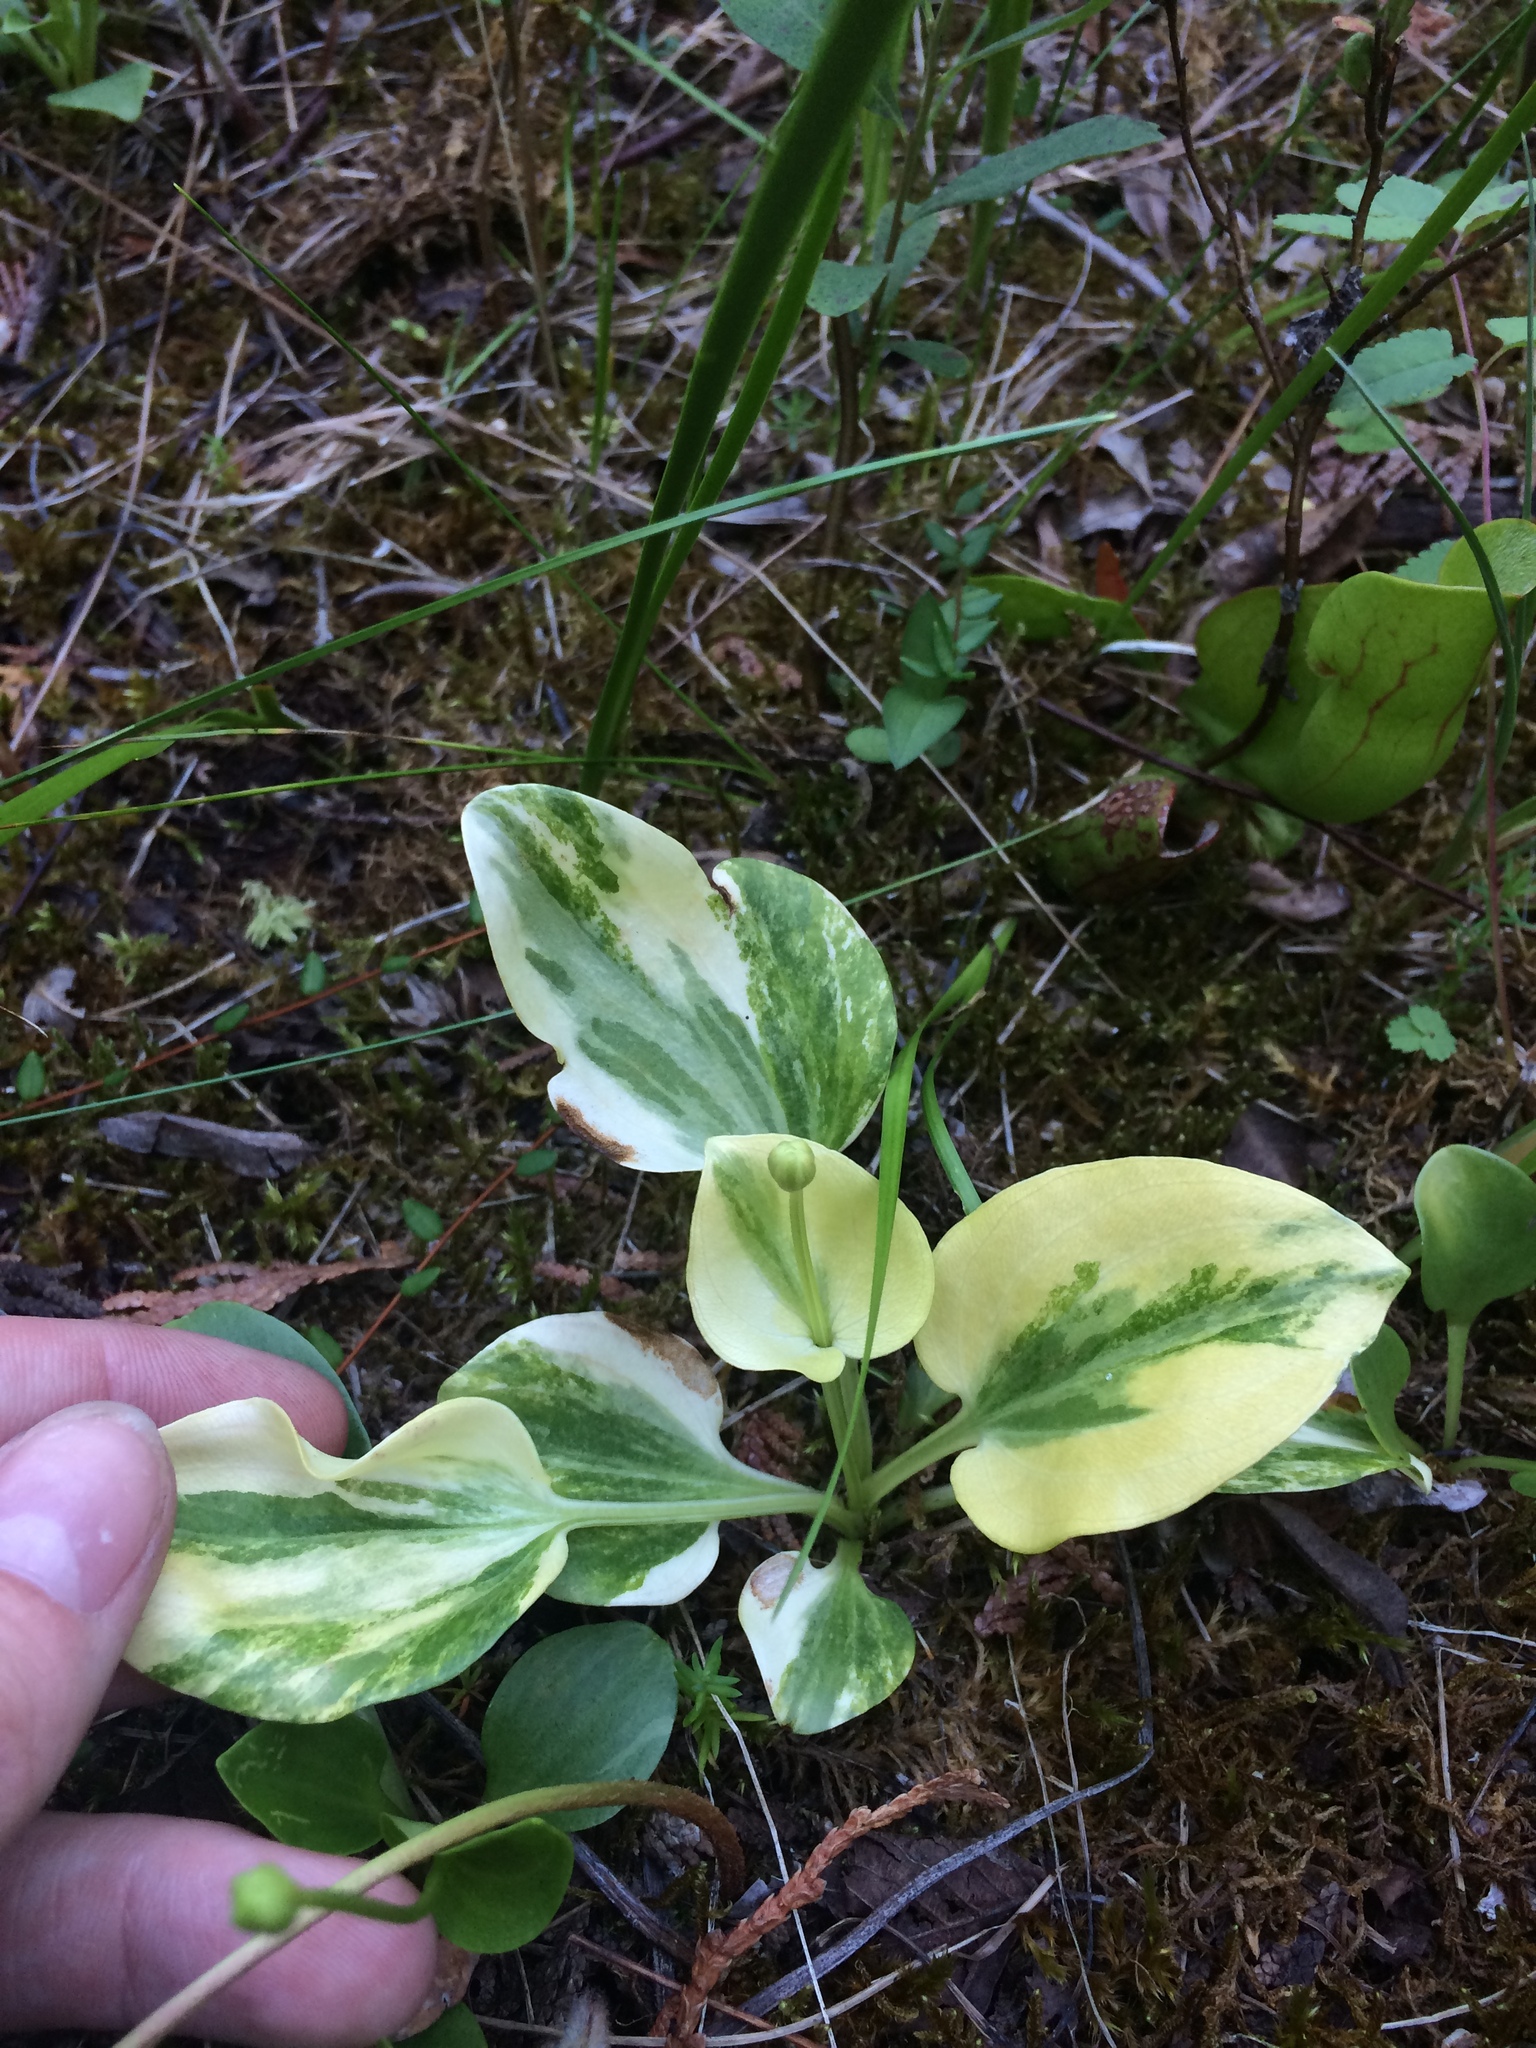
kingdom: Plantae
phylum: Tracheophyta
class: Magnoliopsida
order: Celastrales
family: Parnassiaceae
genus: Parnassia
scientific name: Parnassia glauca
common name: American grass-of-parnassus
